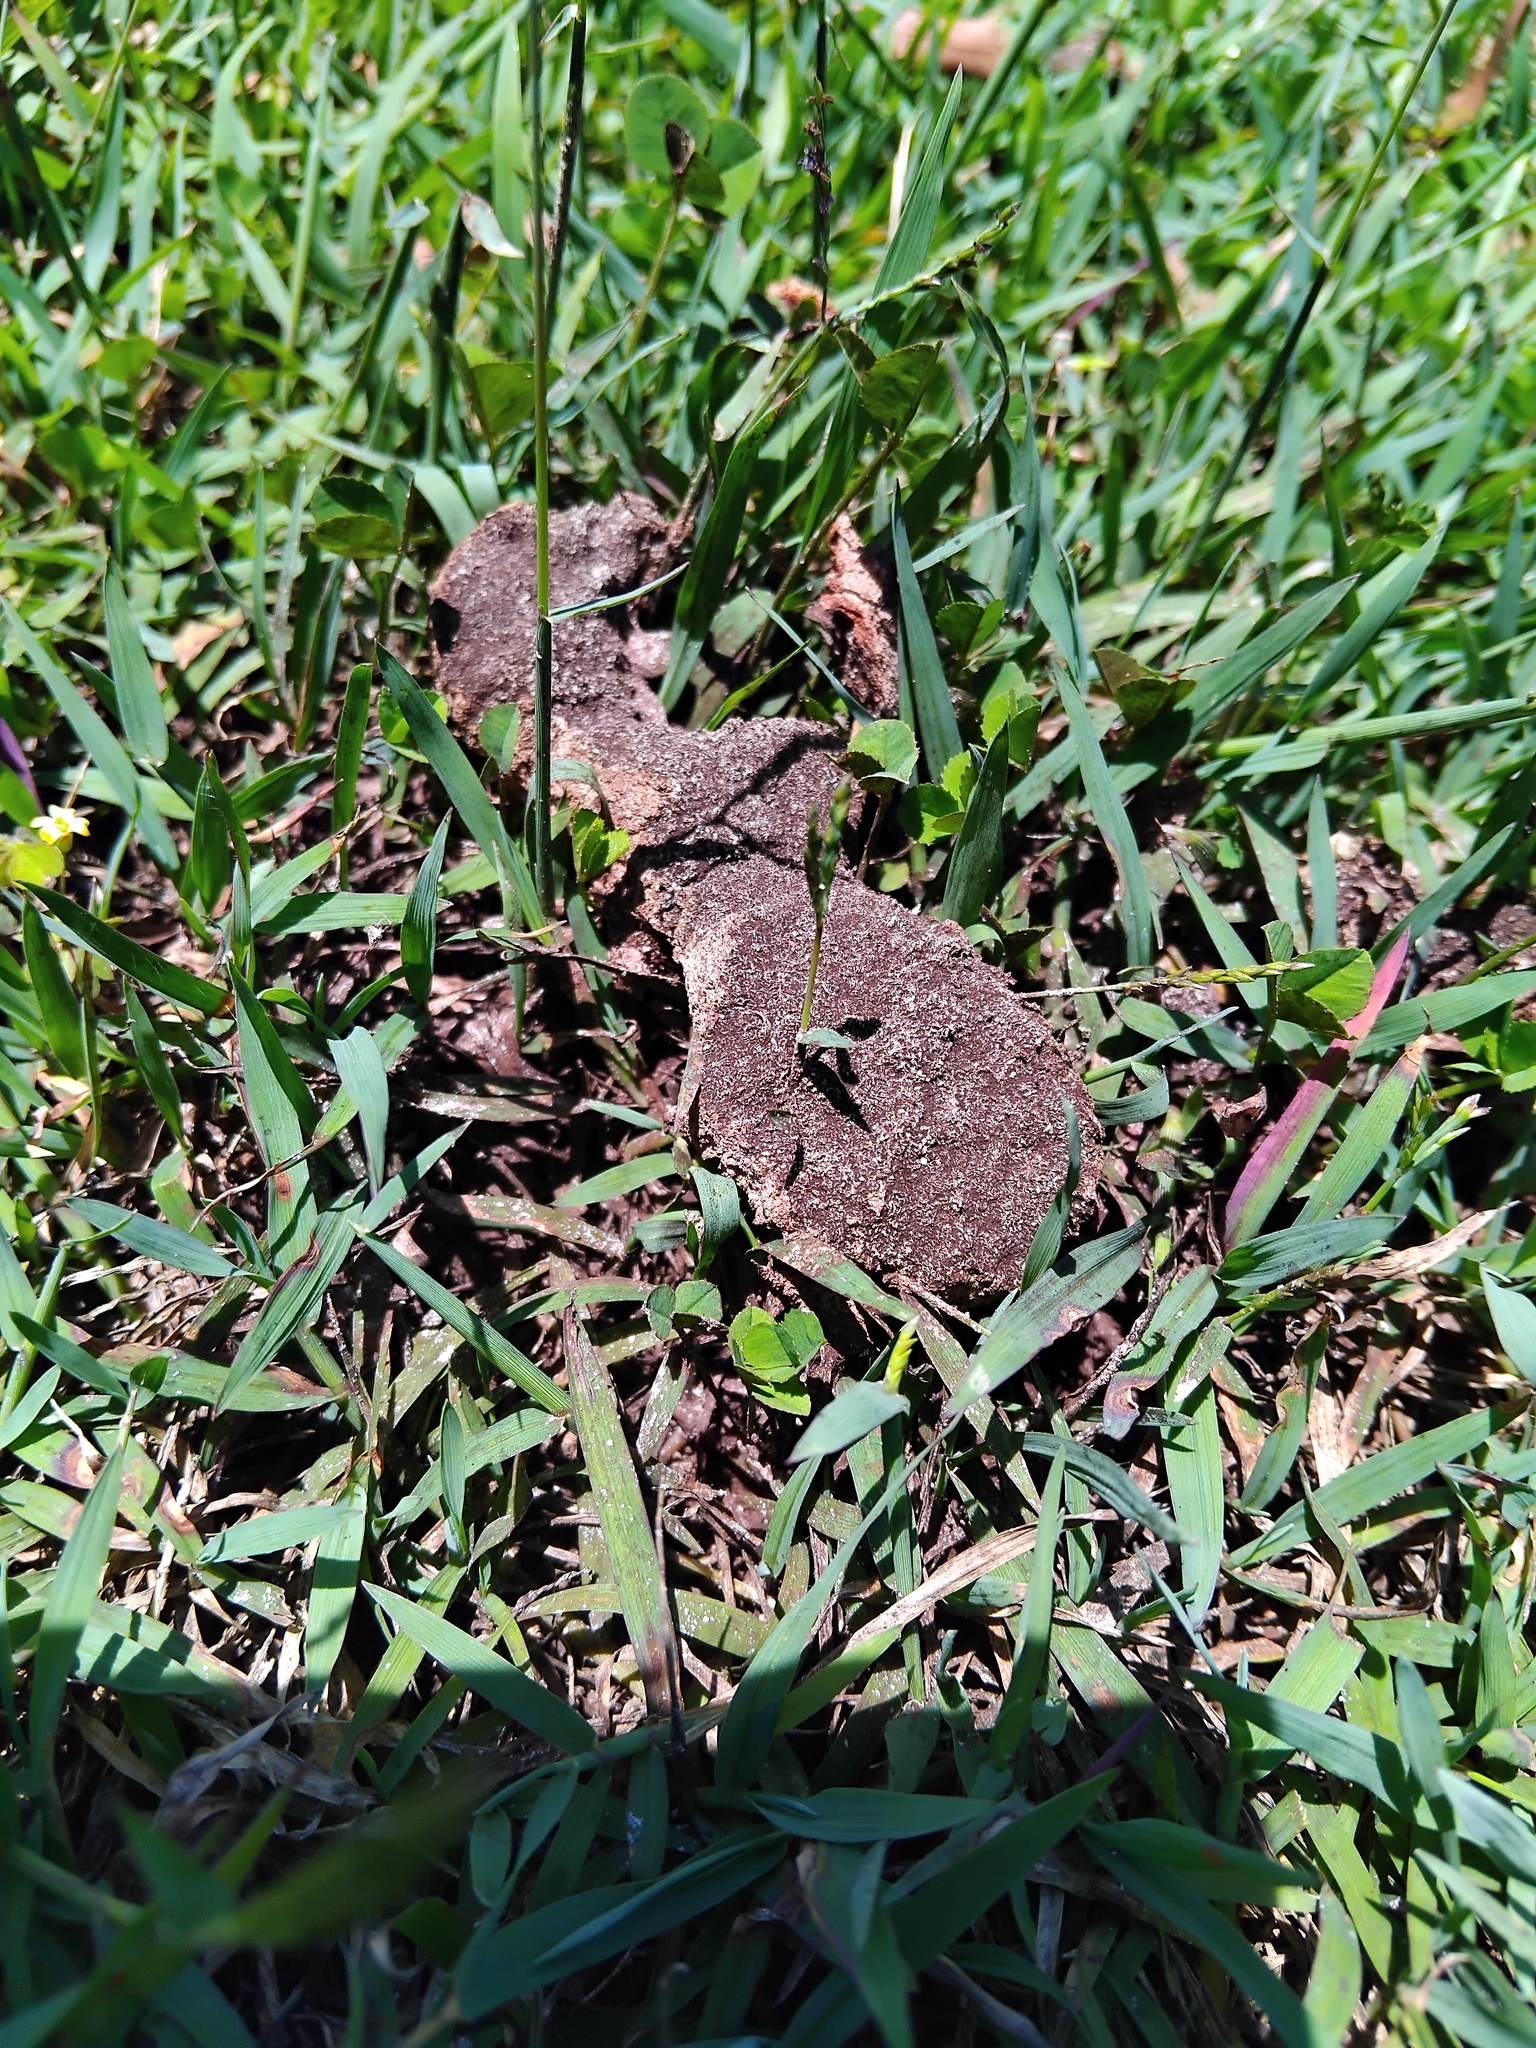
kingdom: Protozoa
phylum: Mycetozoa
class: Myxomycetes
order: Physarales
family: Physaraceae
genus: Fuligo
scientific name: Fuligo septica
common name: Dog vomit slime mold
